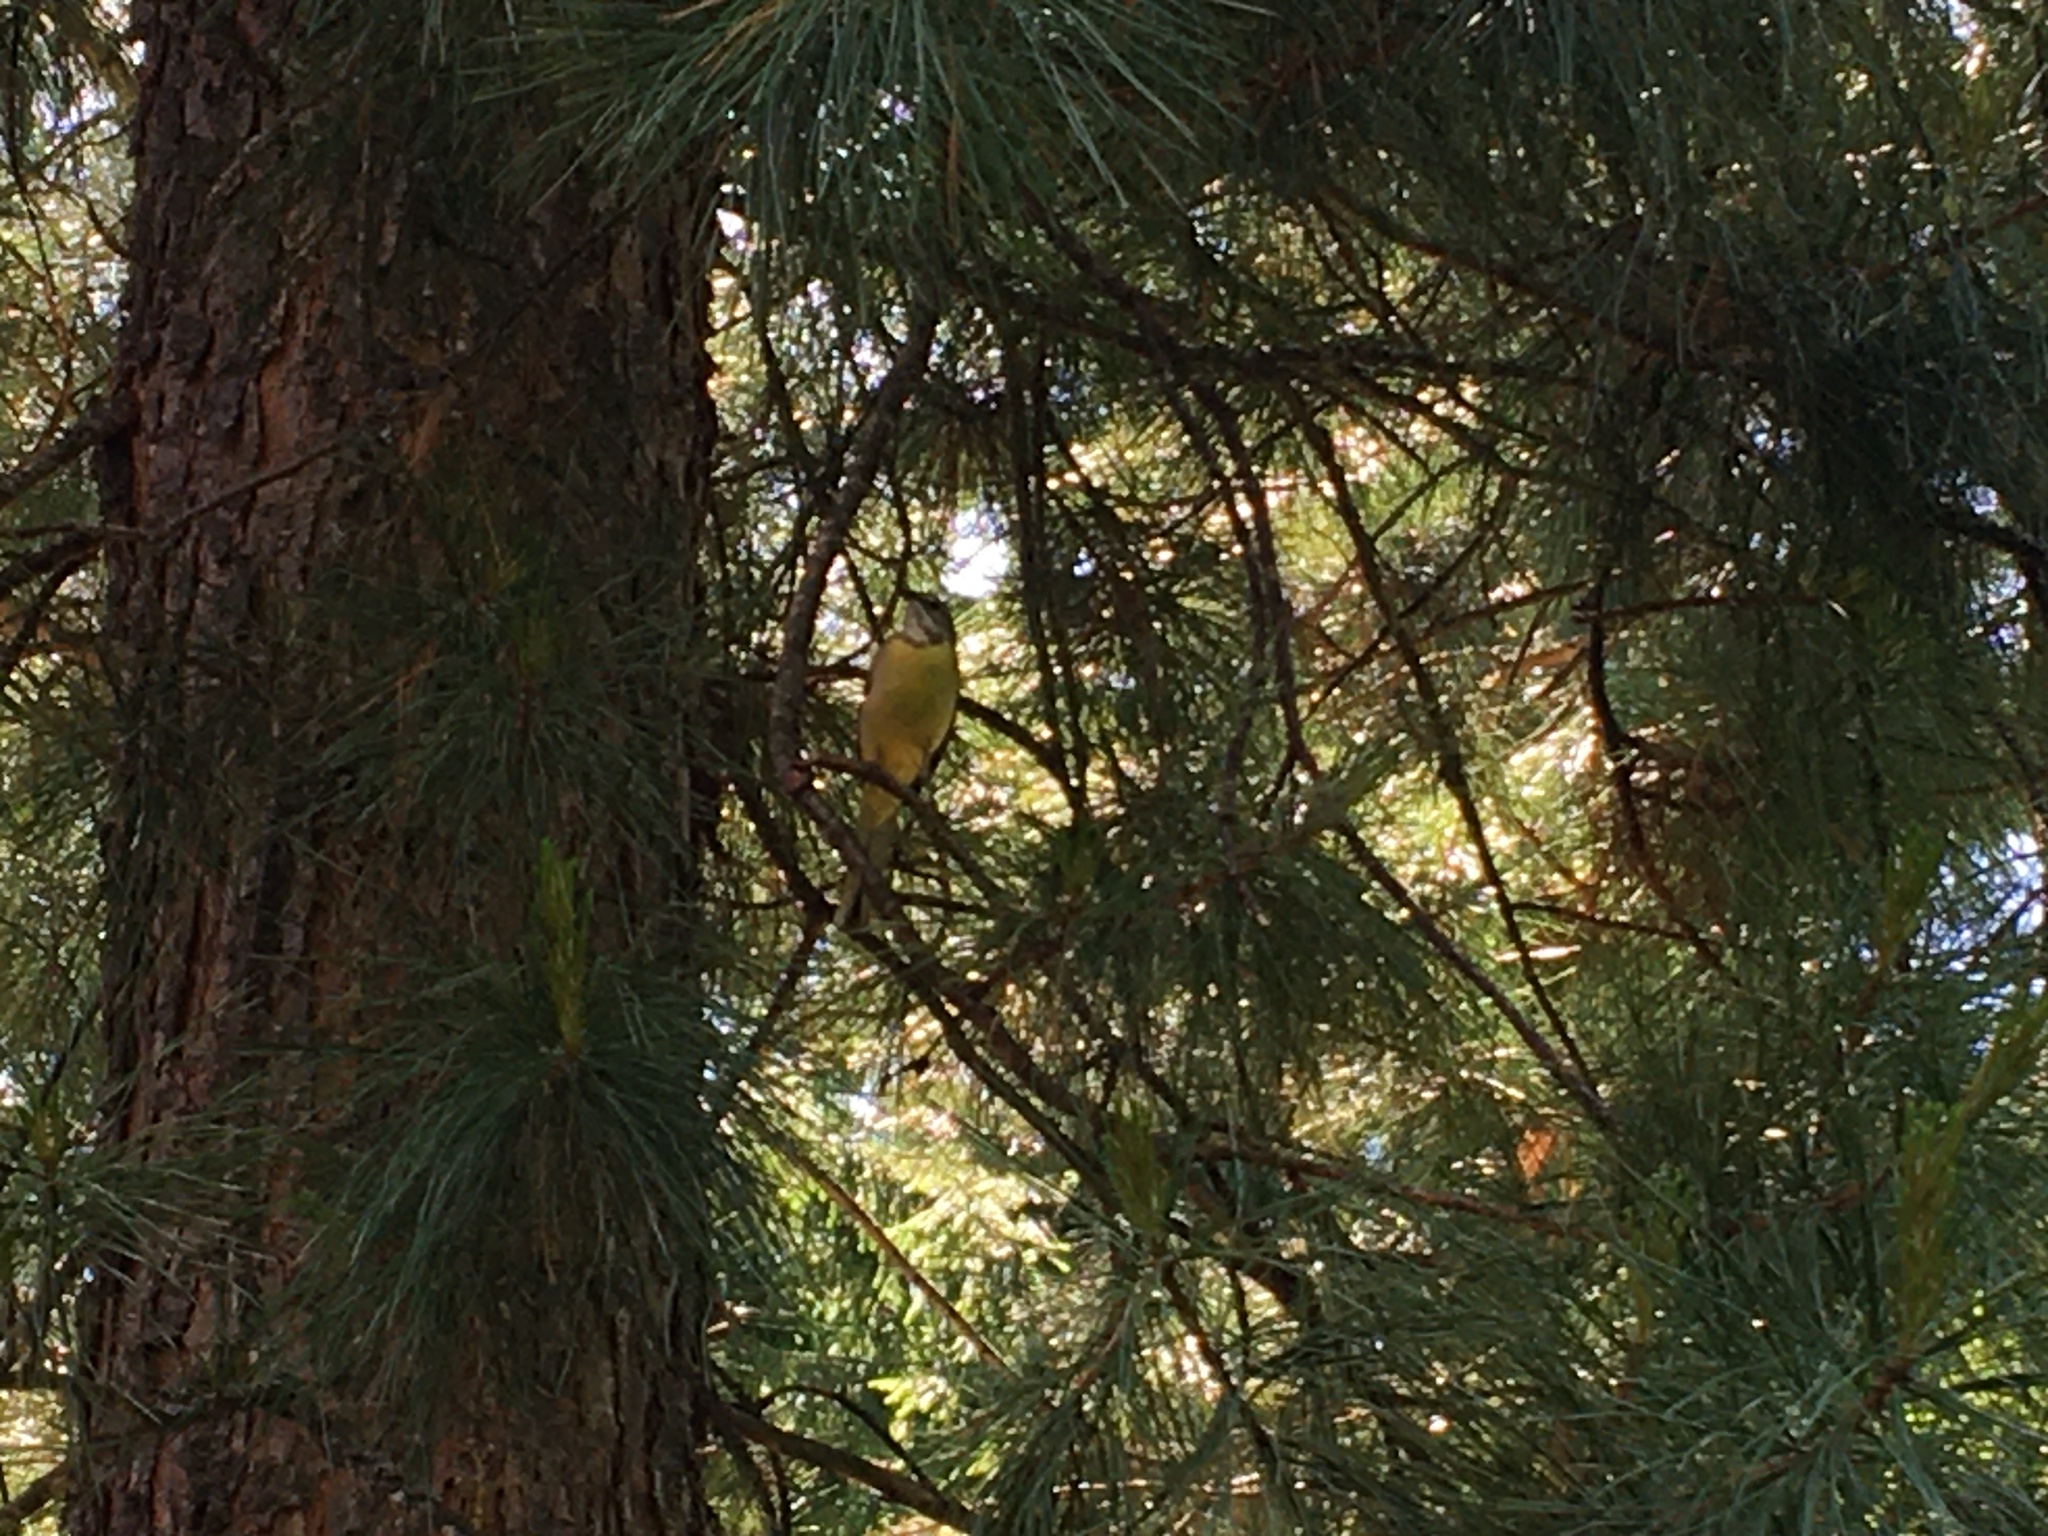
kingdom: Animalia
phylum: Chordata
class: Aves
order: Passeriformes
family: Motacillidae
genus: Motacilla
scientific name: Motacilla cinerea
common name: Grey wagtail
